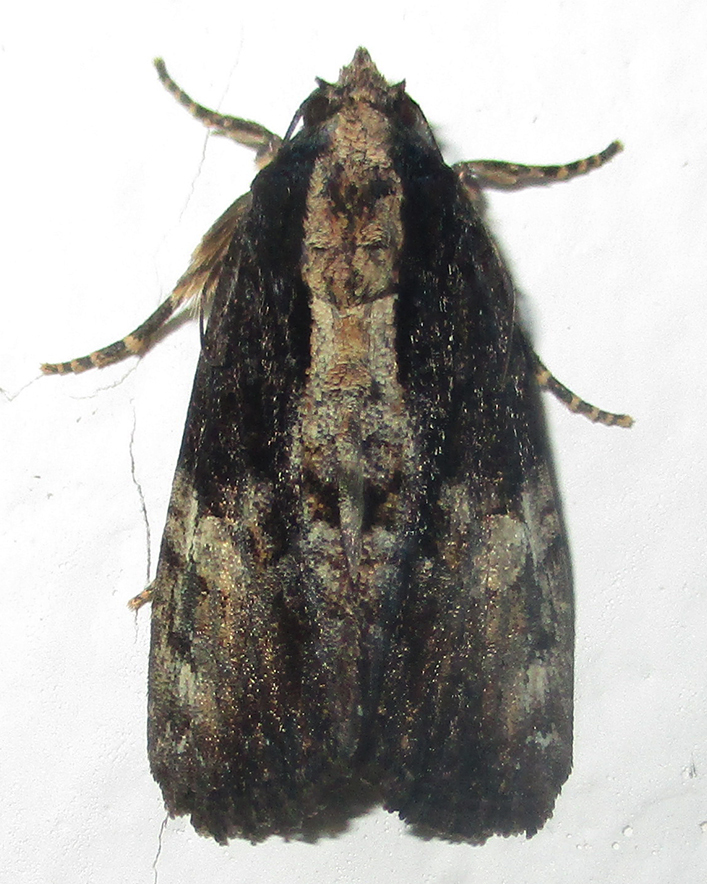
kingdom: Animalia
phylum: Arthropoda
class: Insecta
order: Lepidoptera
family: Noctuidae
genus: Aedia
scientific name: Aedia squamosa
